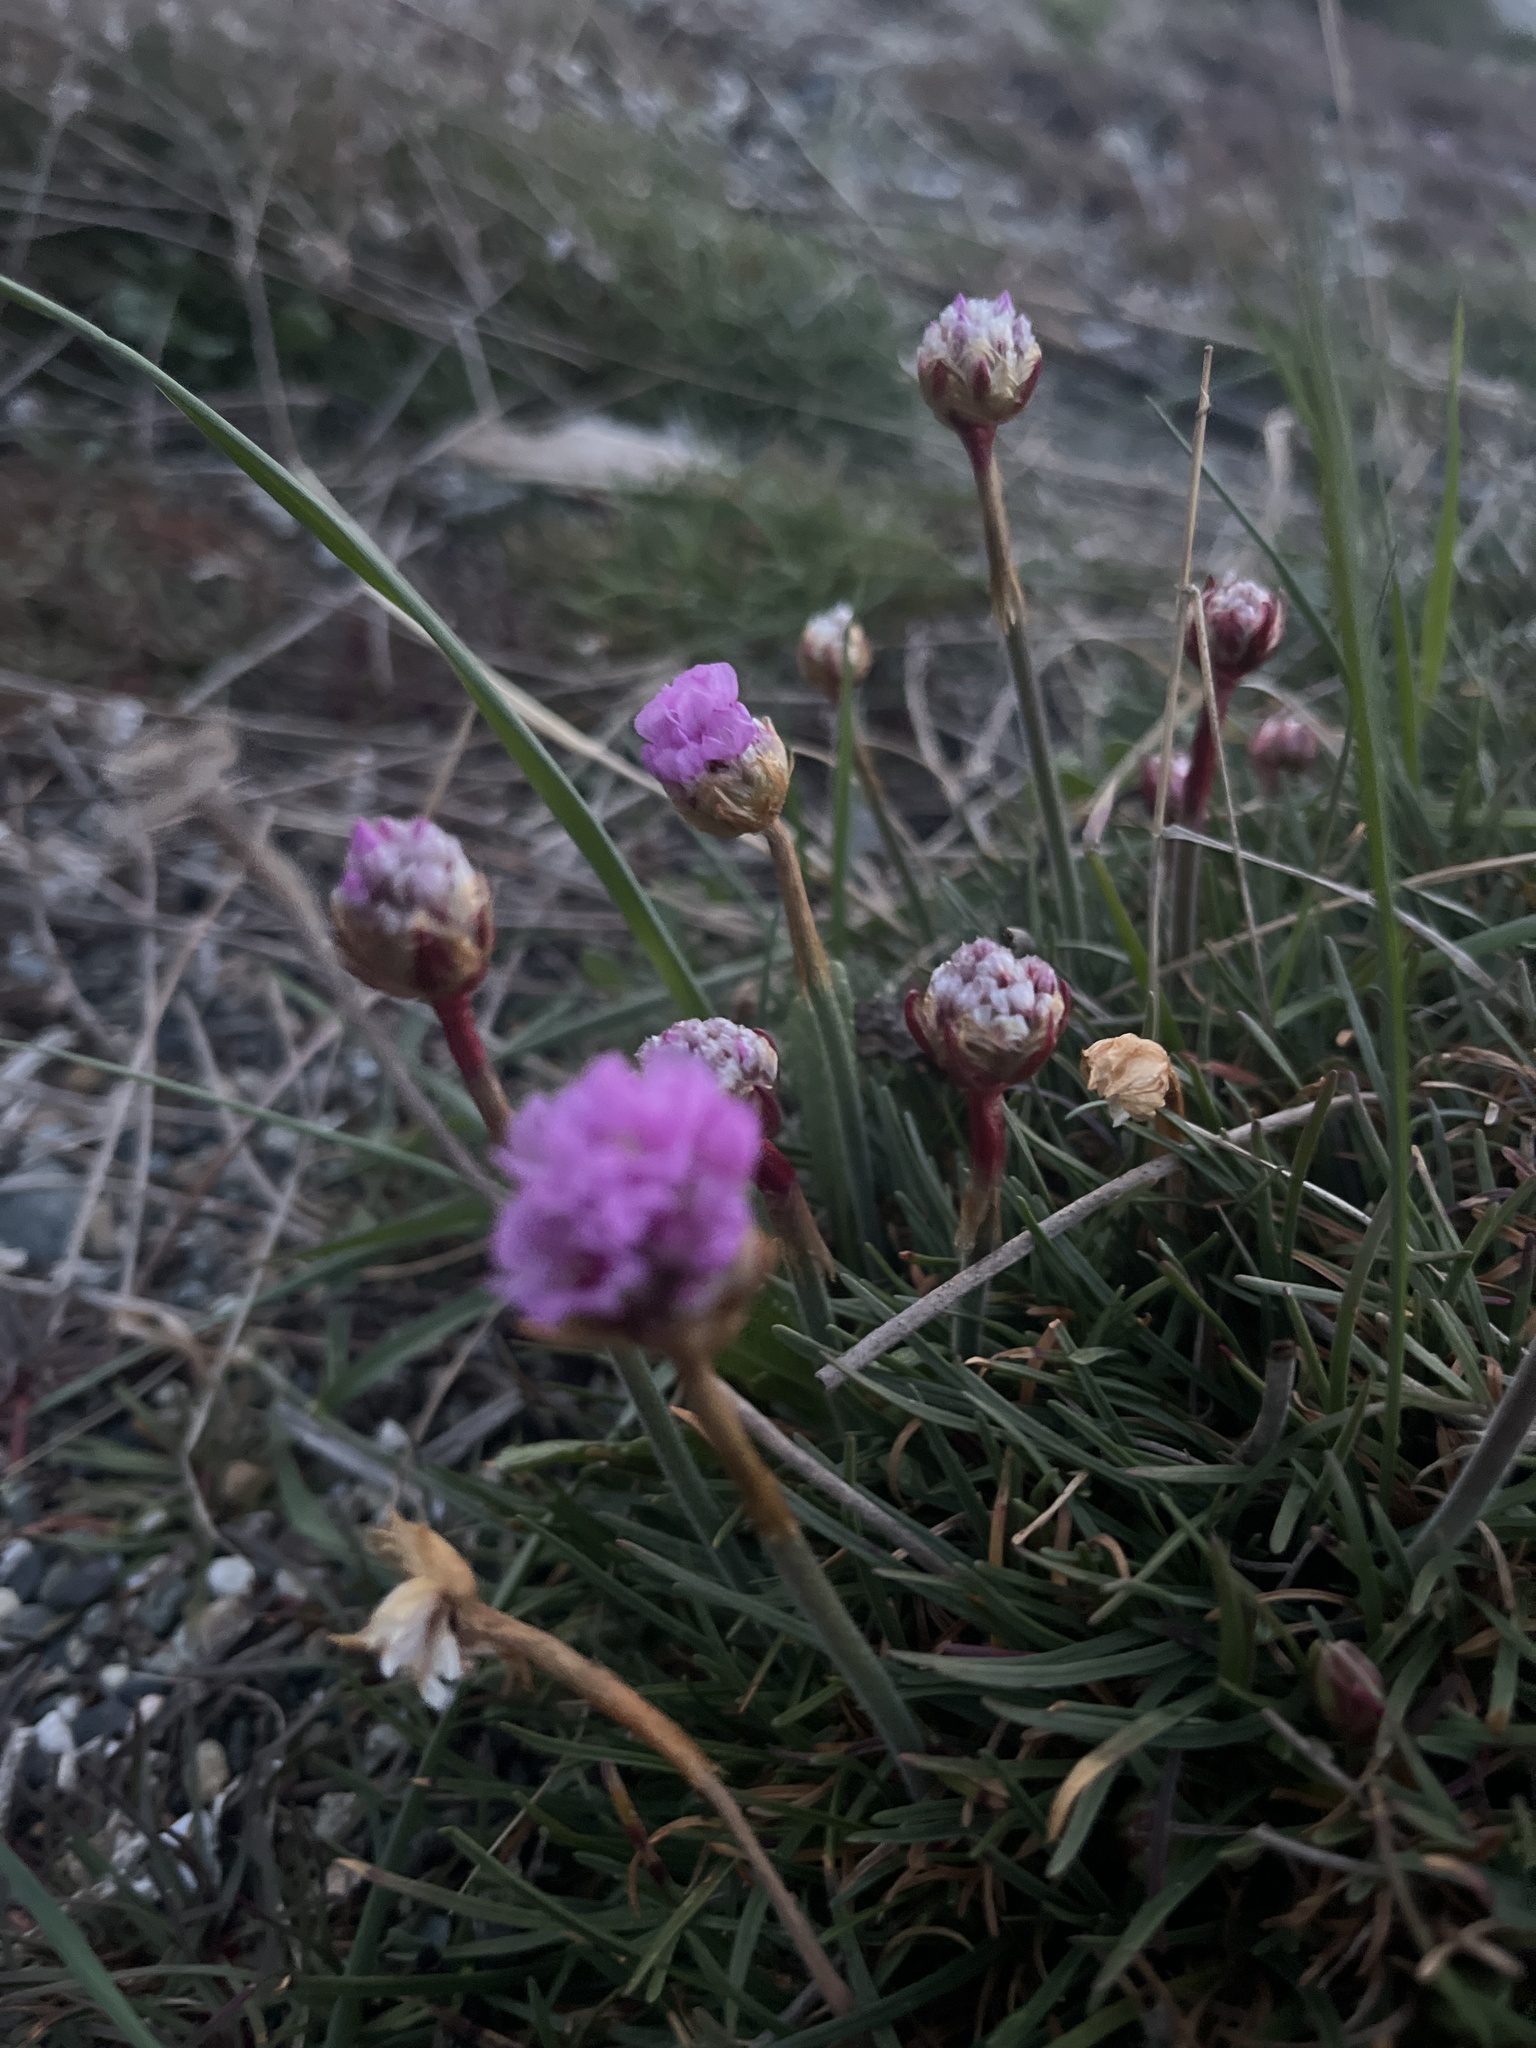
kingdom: Plantae
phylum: Tracheophyta
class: Magnoliopsida
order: Caryophyllales
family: Plumbaginaceae
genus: Armeria
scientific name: Armeria maritima
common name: Thrift
